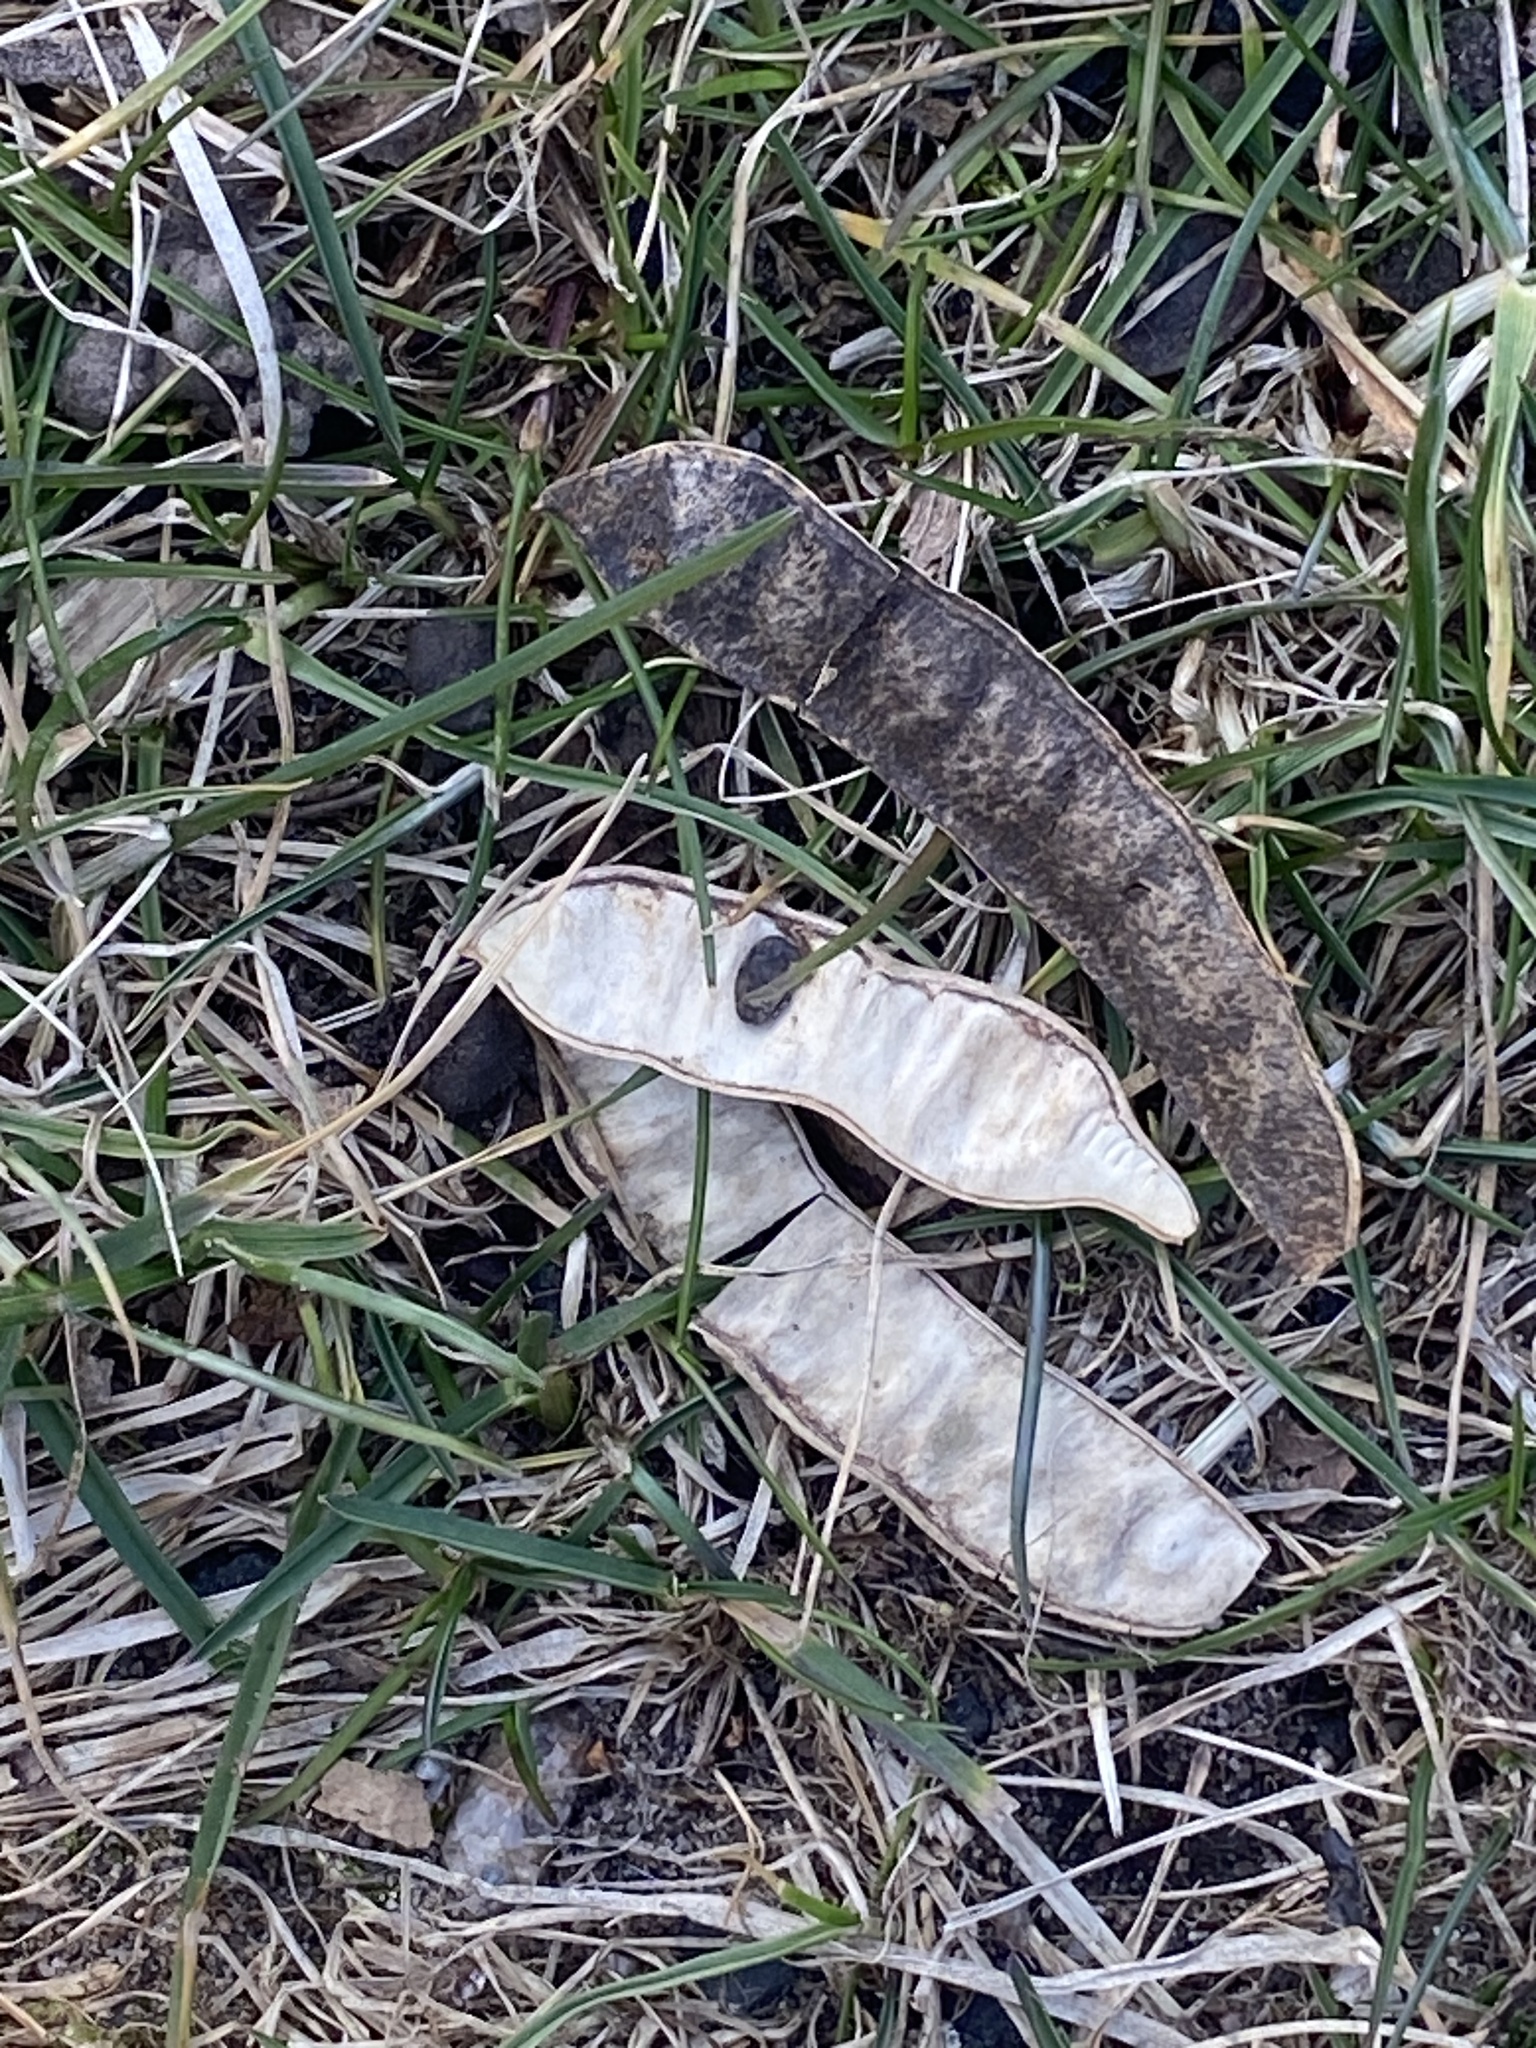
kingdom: Plantae
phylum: Tracheophyta
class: Magnoliopsida
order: Fabales
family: Fabaceae
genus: Robinia
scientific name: Robinia pseudoacacia
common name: Black locust
